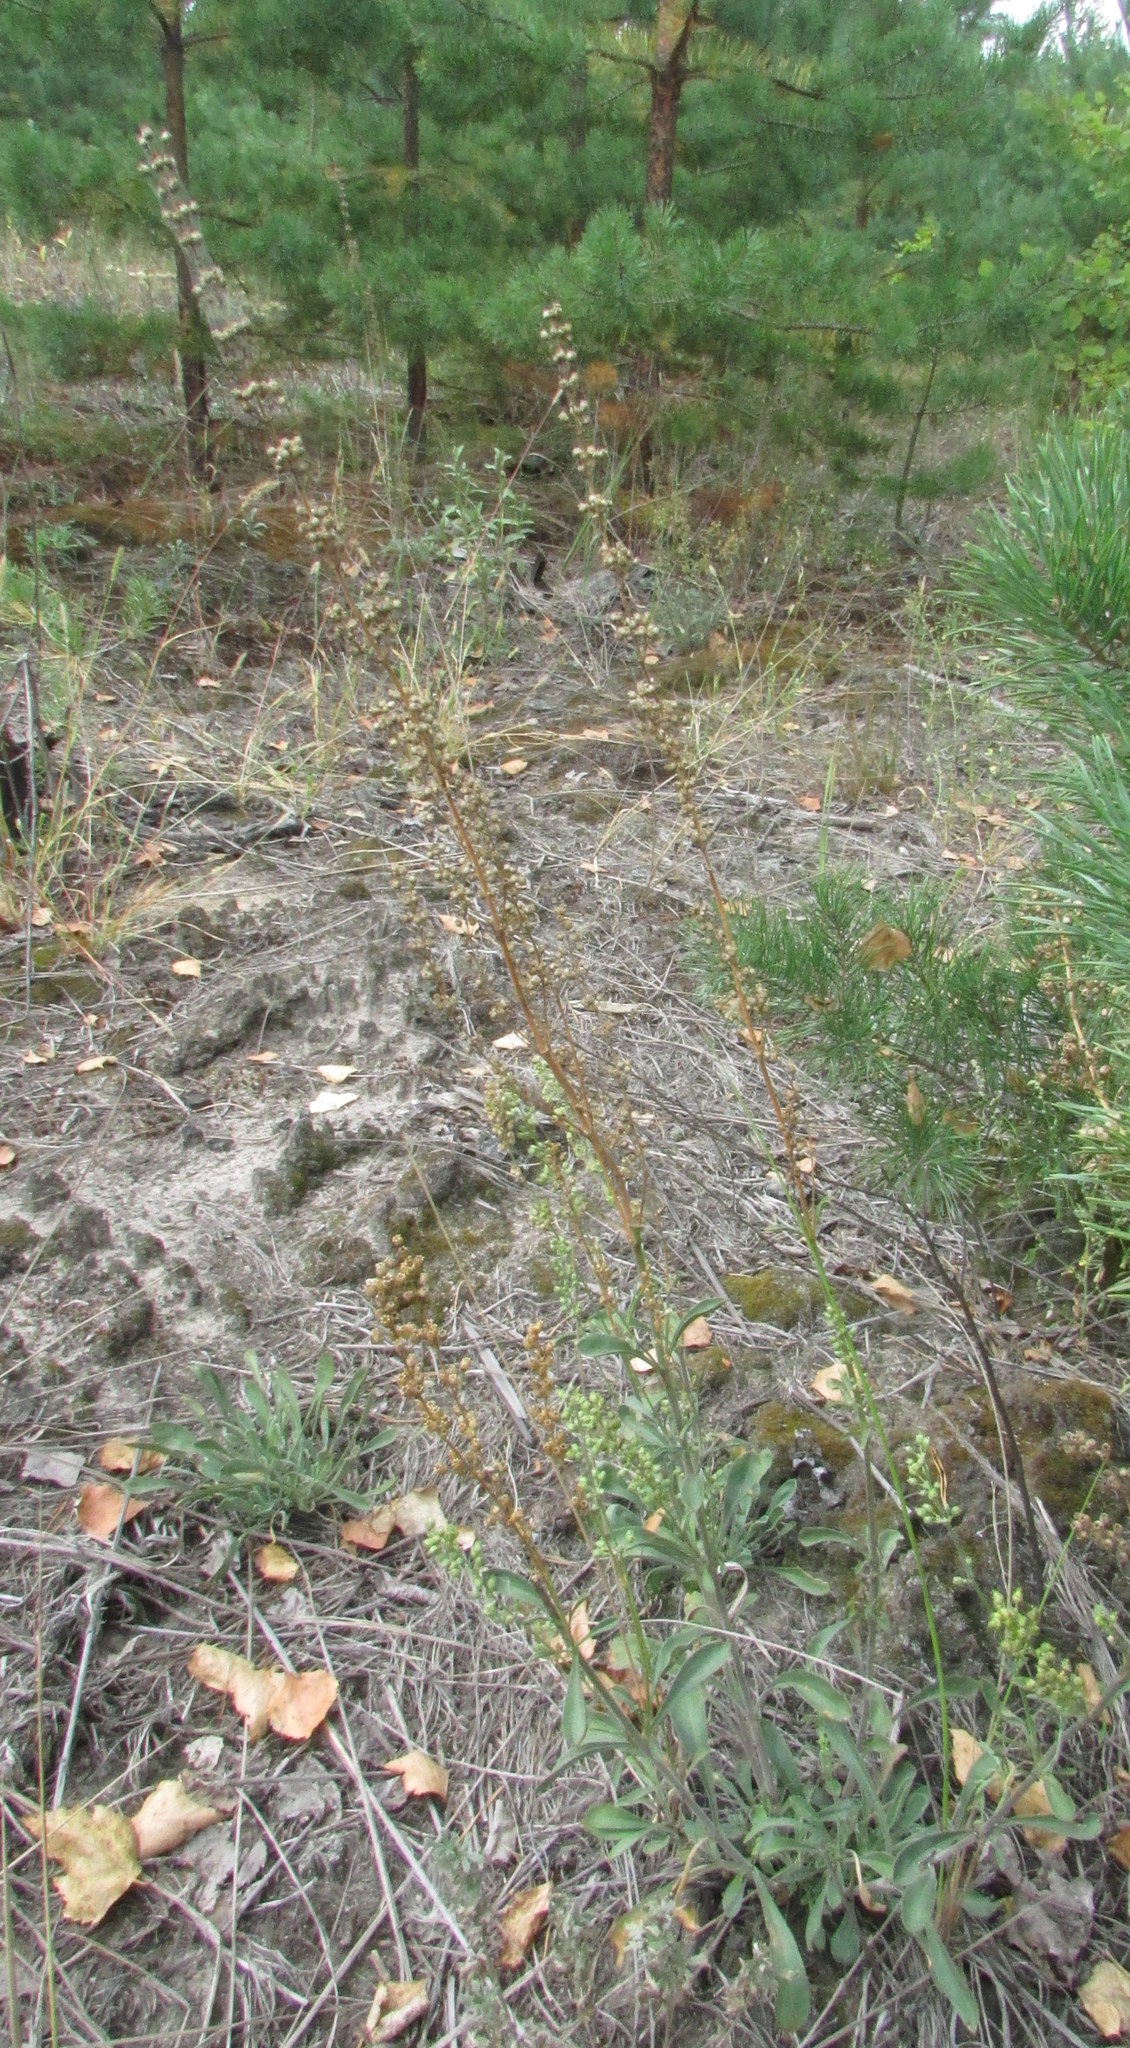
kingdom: Plantae
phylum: Tracheophyta
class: Magnoliopsida
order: Caryophyllales
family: Caryophyllaceae
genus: Silene
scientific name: Silene borysthenica
